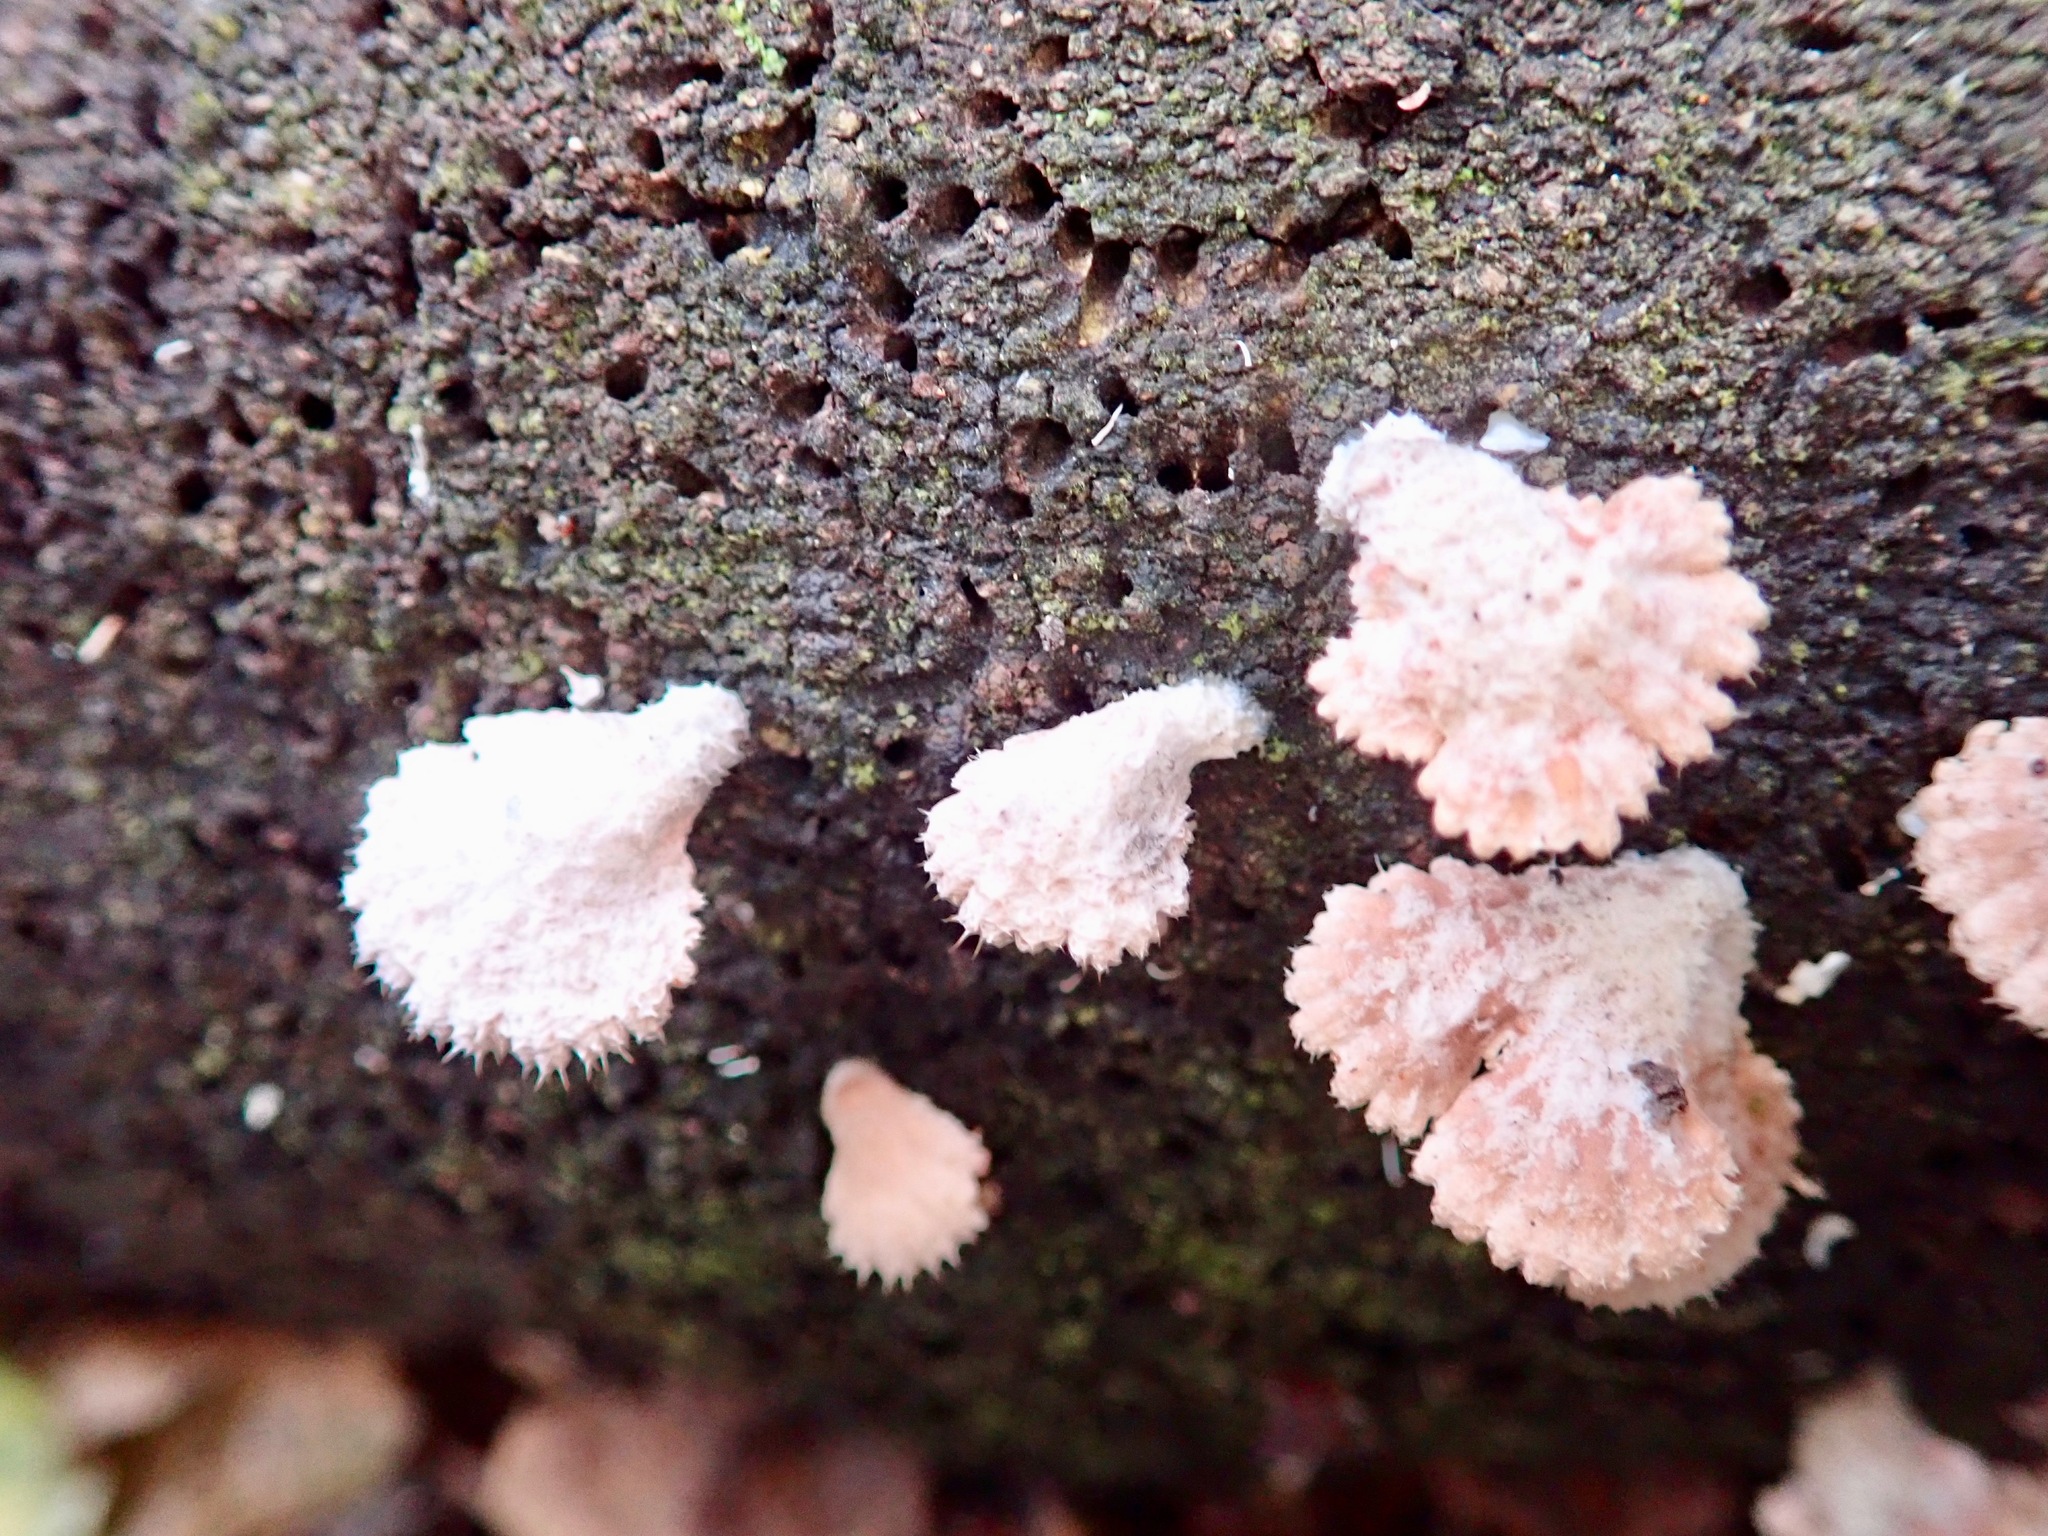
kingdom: Fungi
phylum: Basidiomycota
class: Agaricomycetes
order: Agaricales
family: Schizophyllaceae
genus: Schizophyllum
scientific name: Schizophyllum commune
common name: Common porecrust
